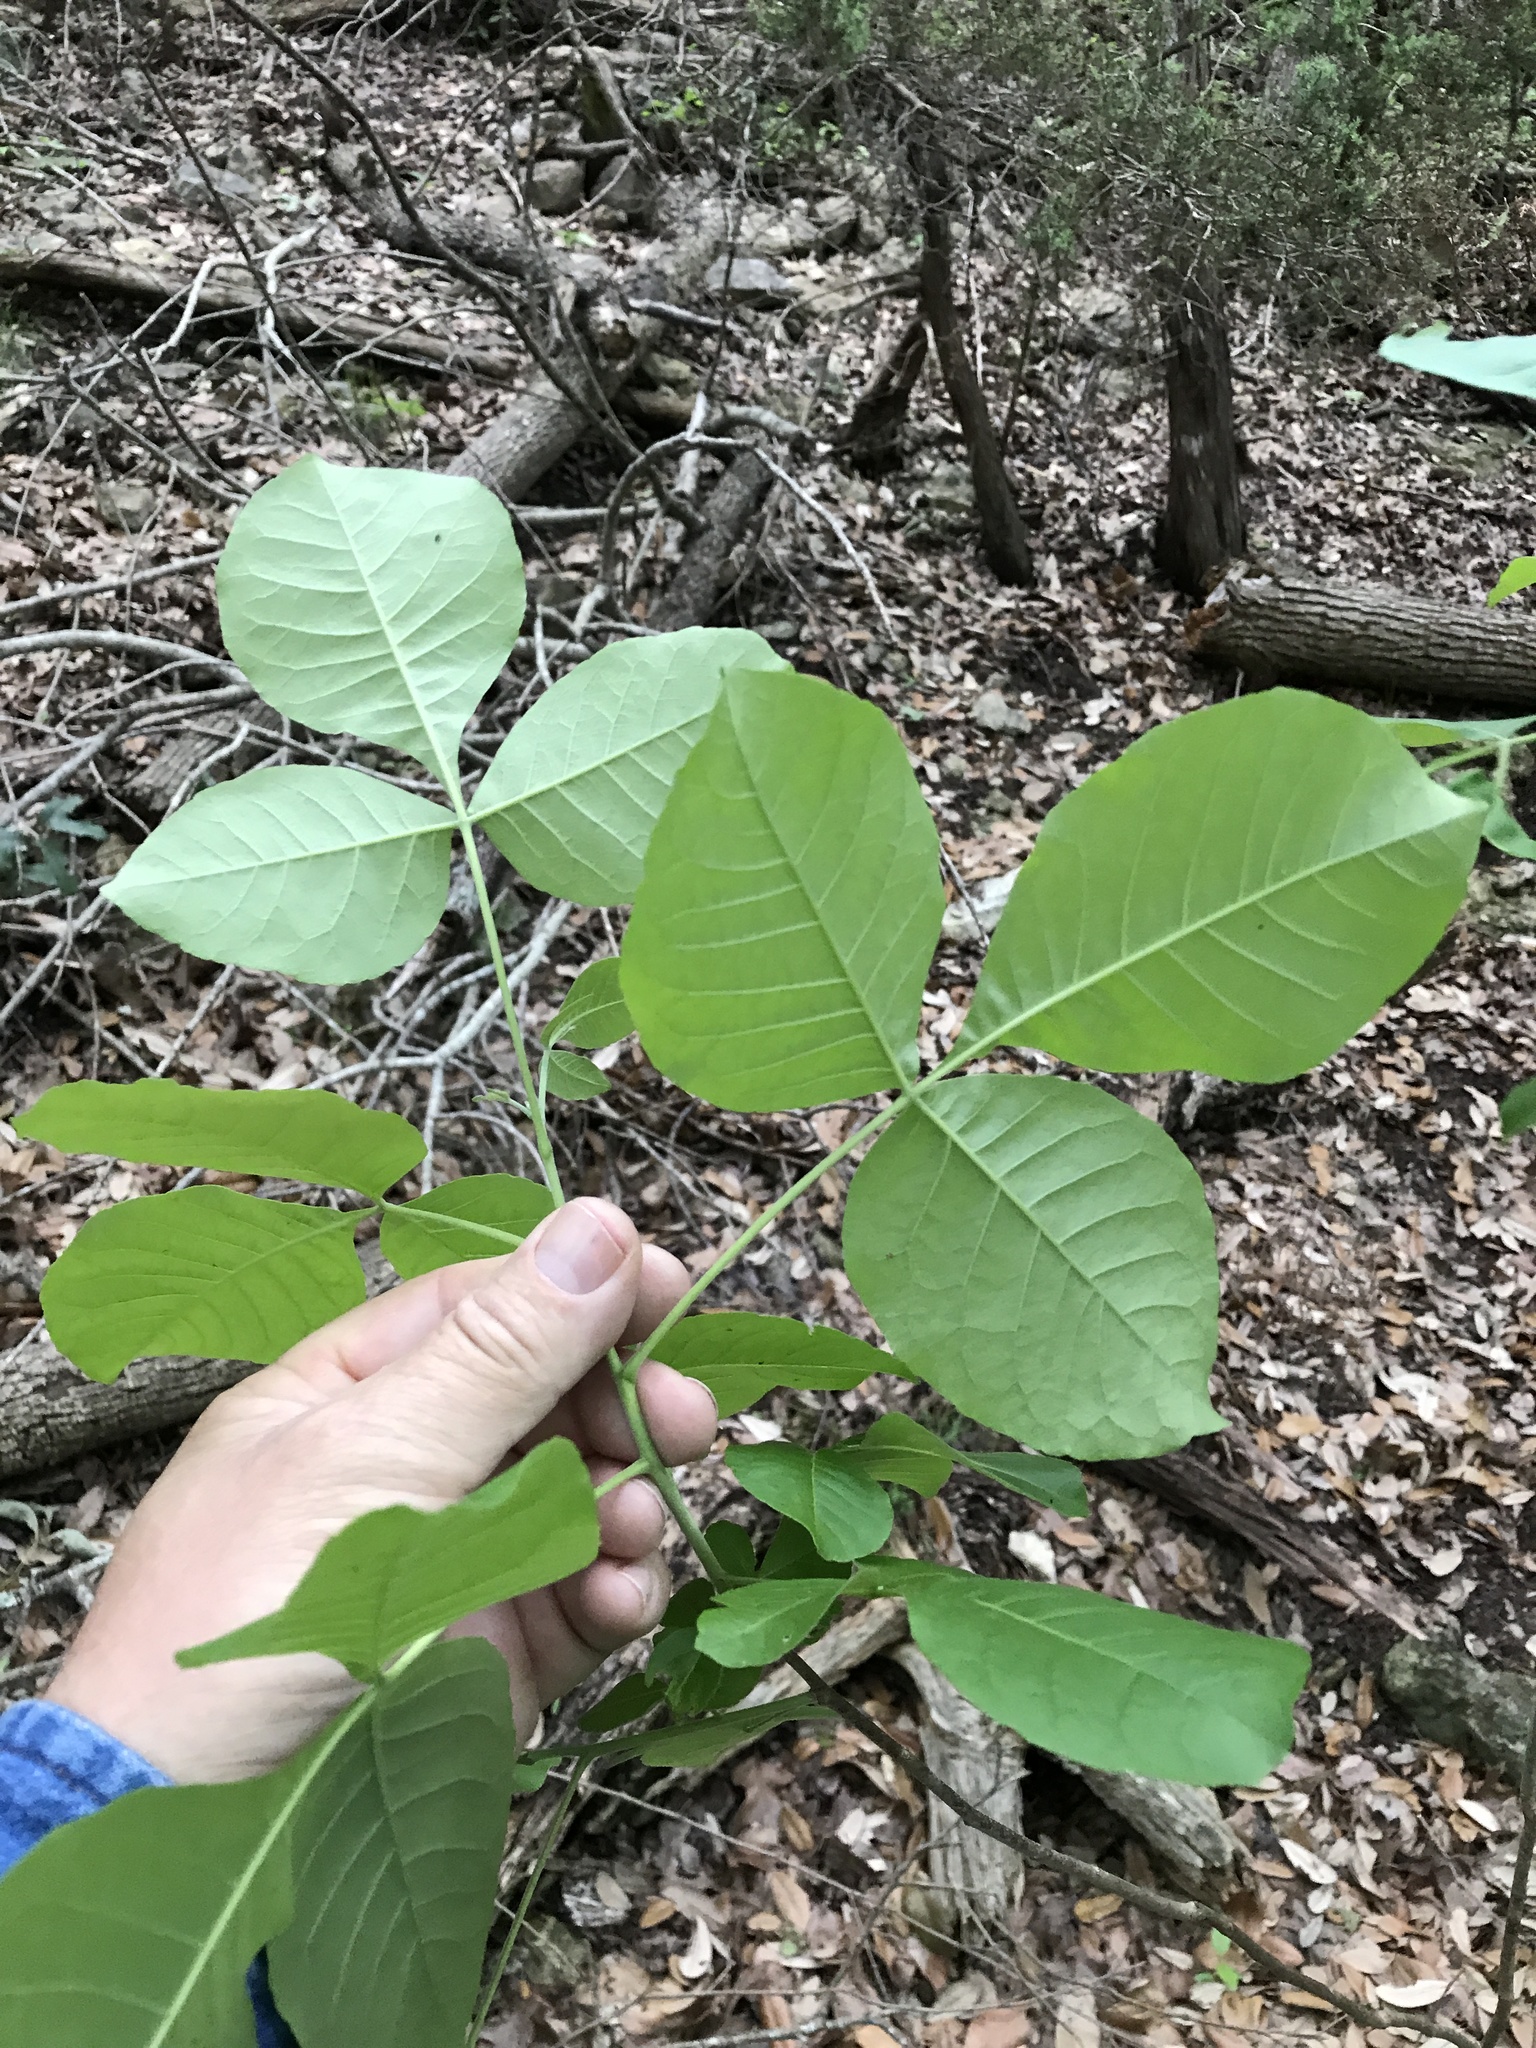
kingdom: Plantae
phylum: Tracheophyta
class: Magnoliopsida
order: Sapindales
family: Rutaceae
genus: Ptelea
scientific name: Ptelea trifoliata
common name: Common hop-tree
